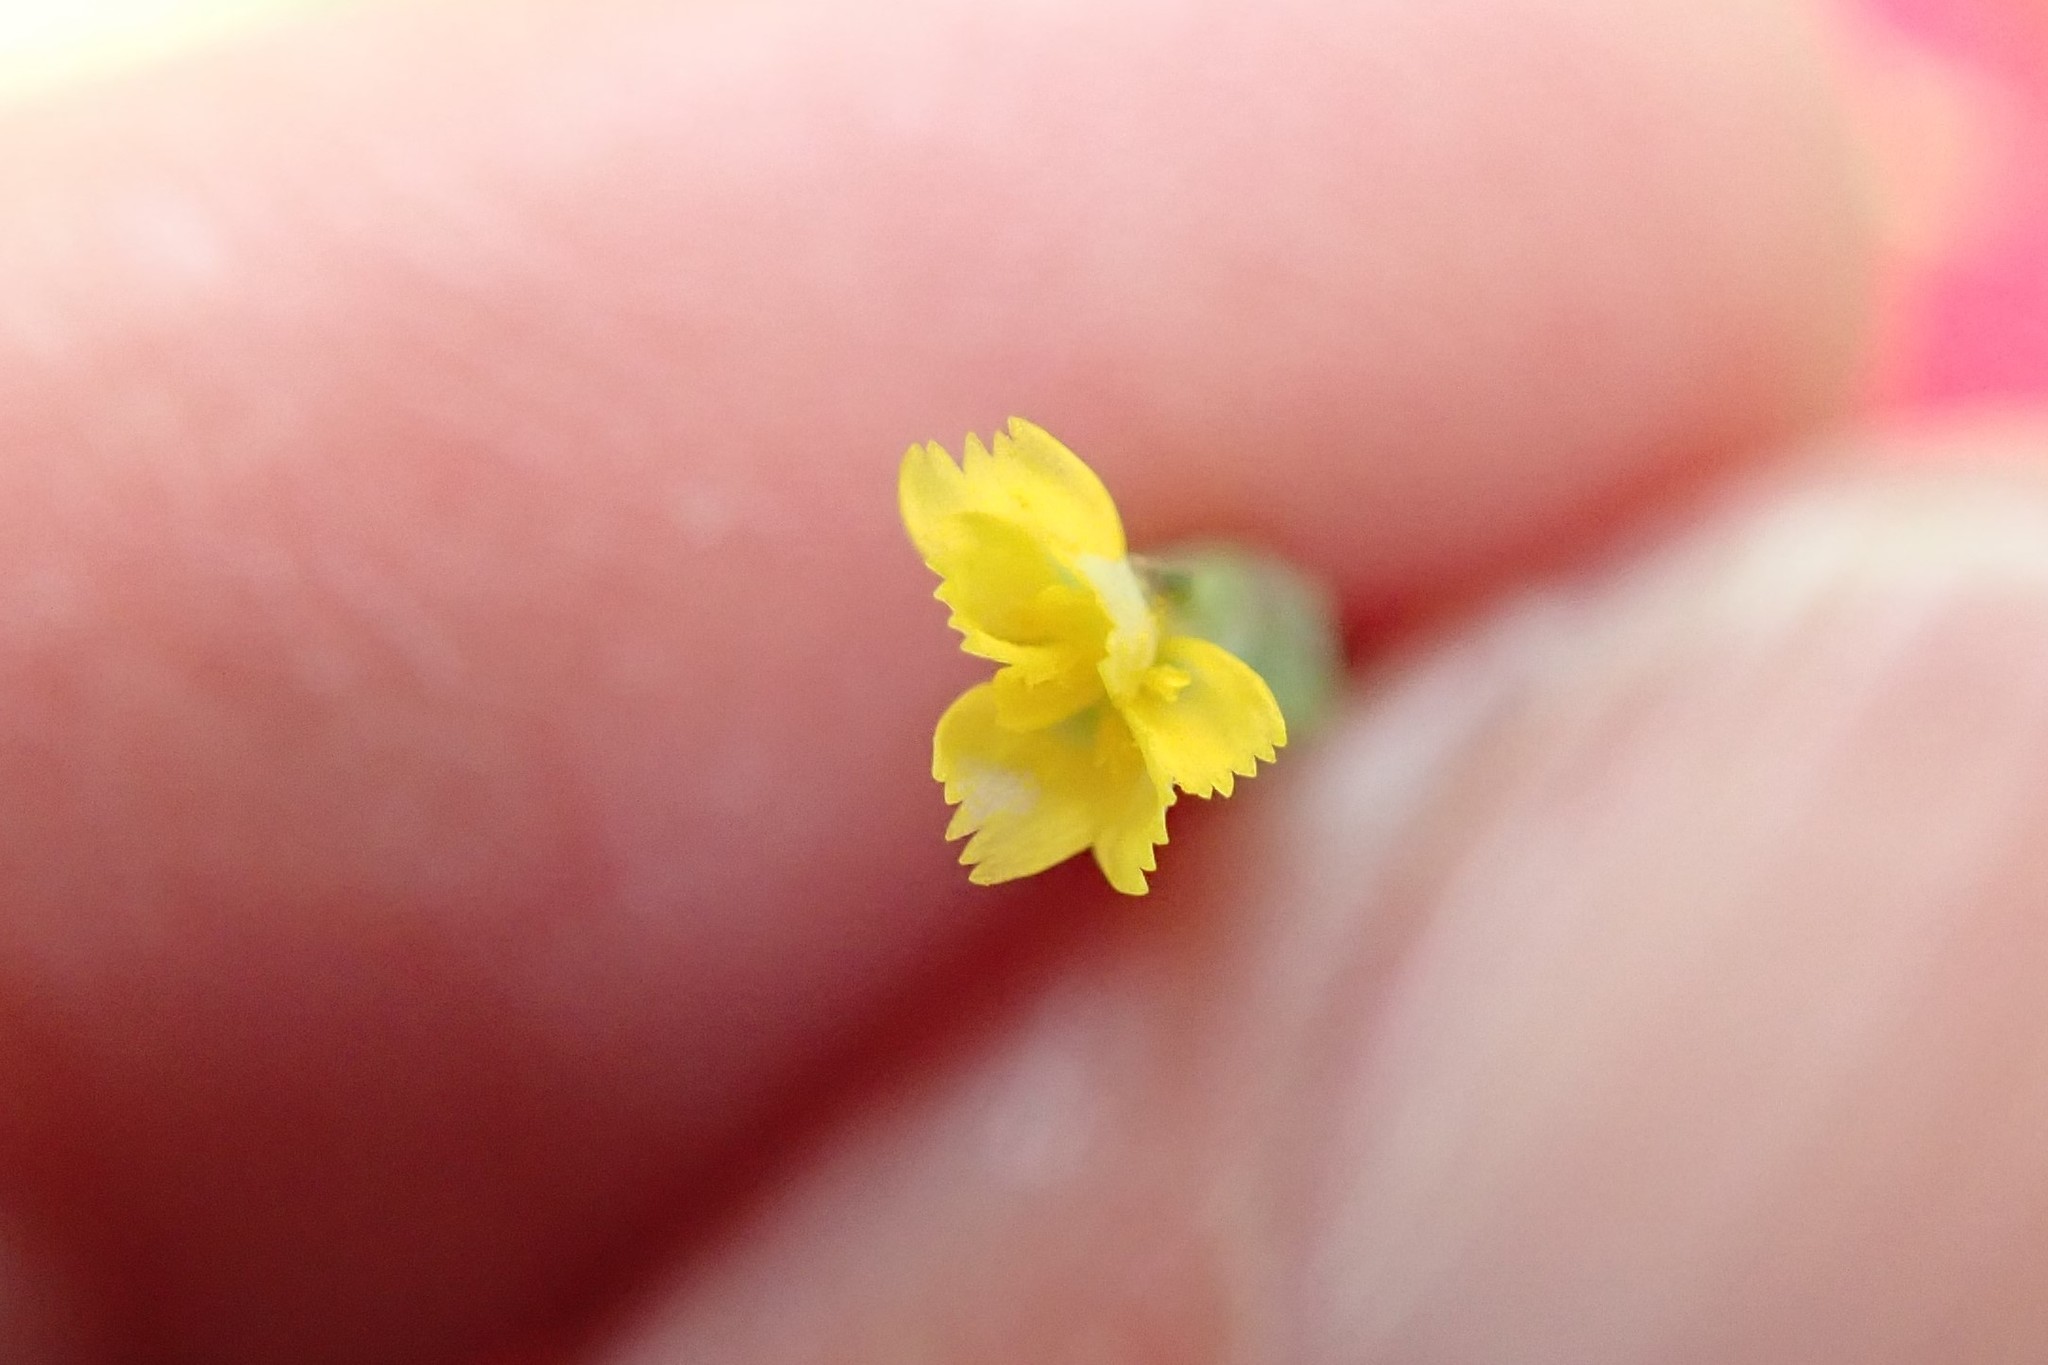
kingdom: Plantae
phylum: Tracheophyta
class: Magnoliopsida
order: Asterales
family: Asteraceae
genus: Hypochaeris
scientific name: Hypochaeris glabra
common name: Smooth catsear
